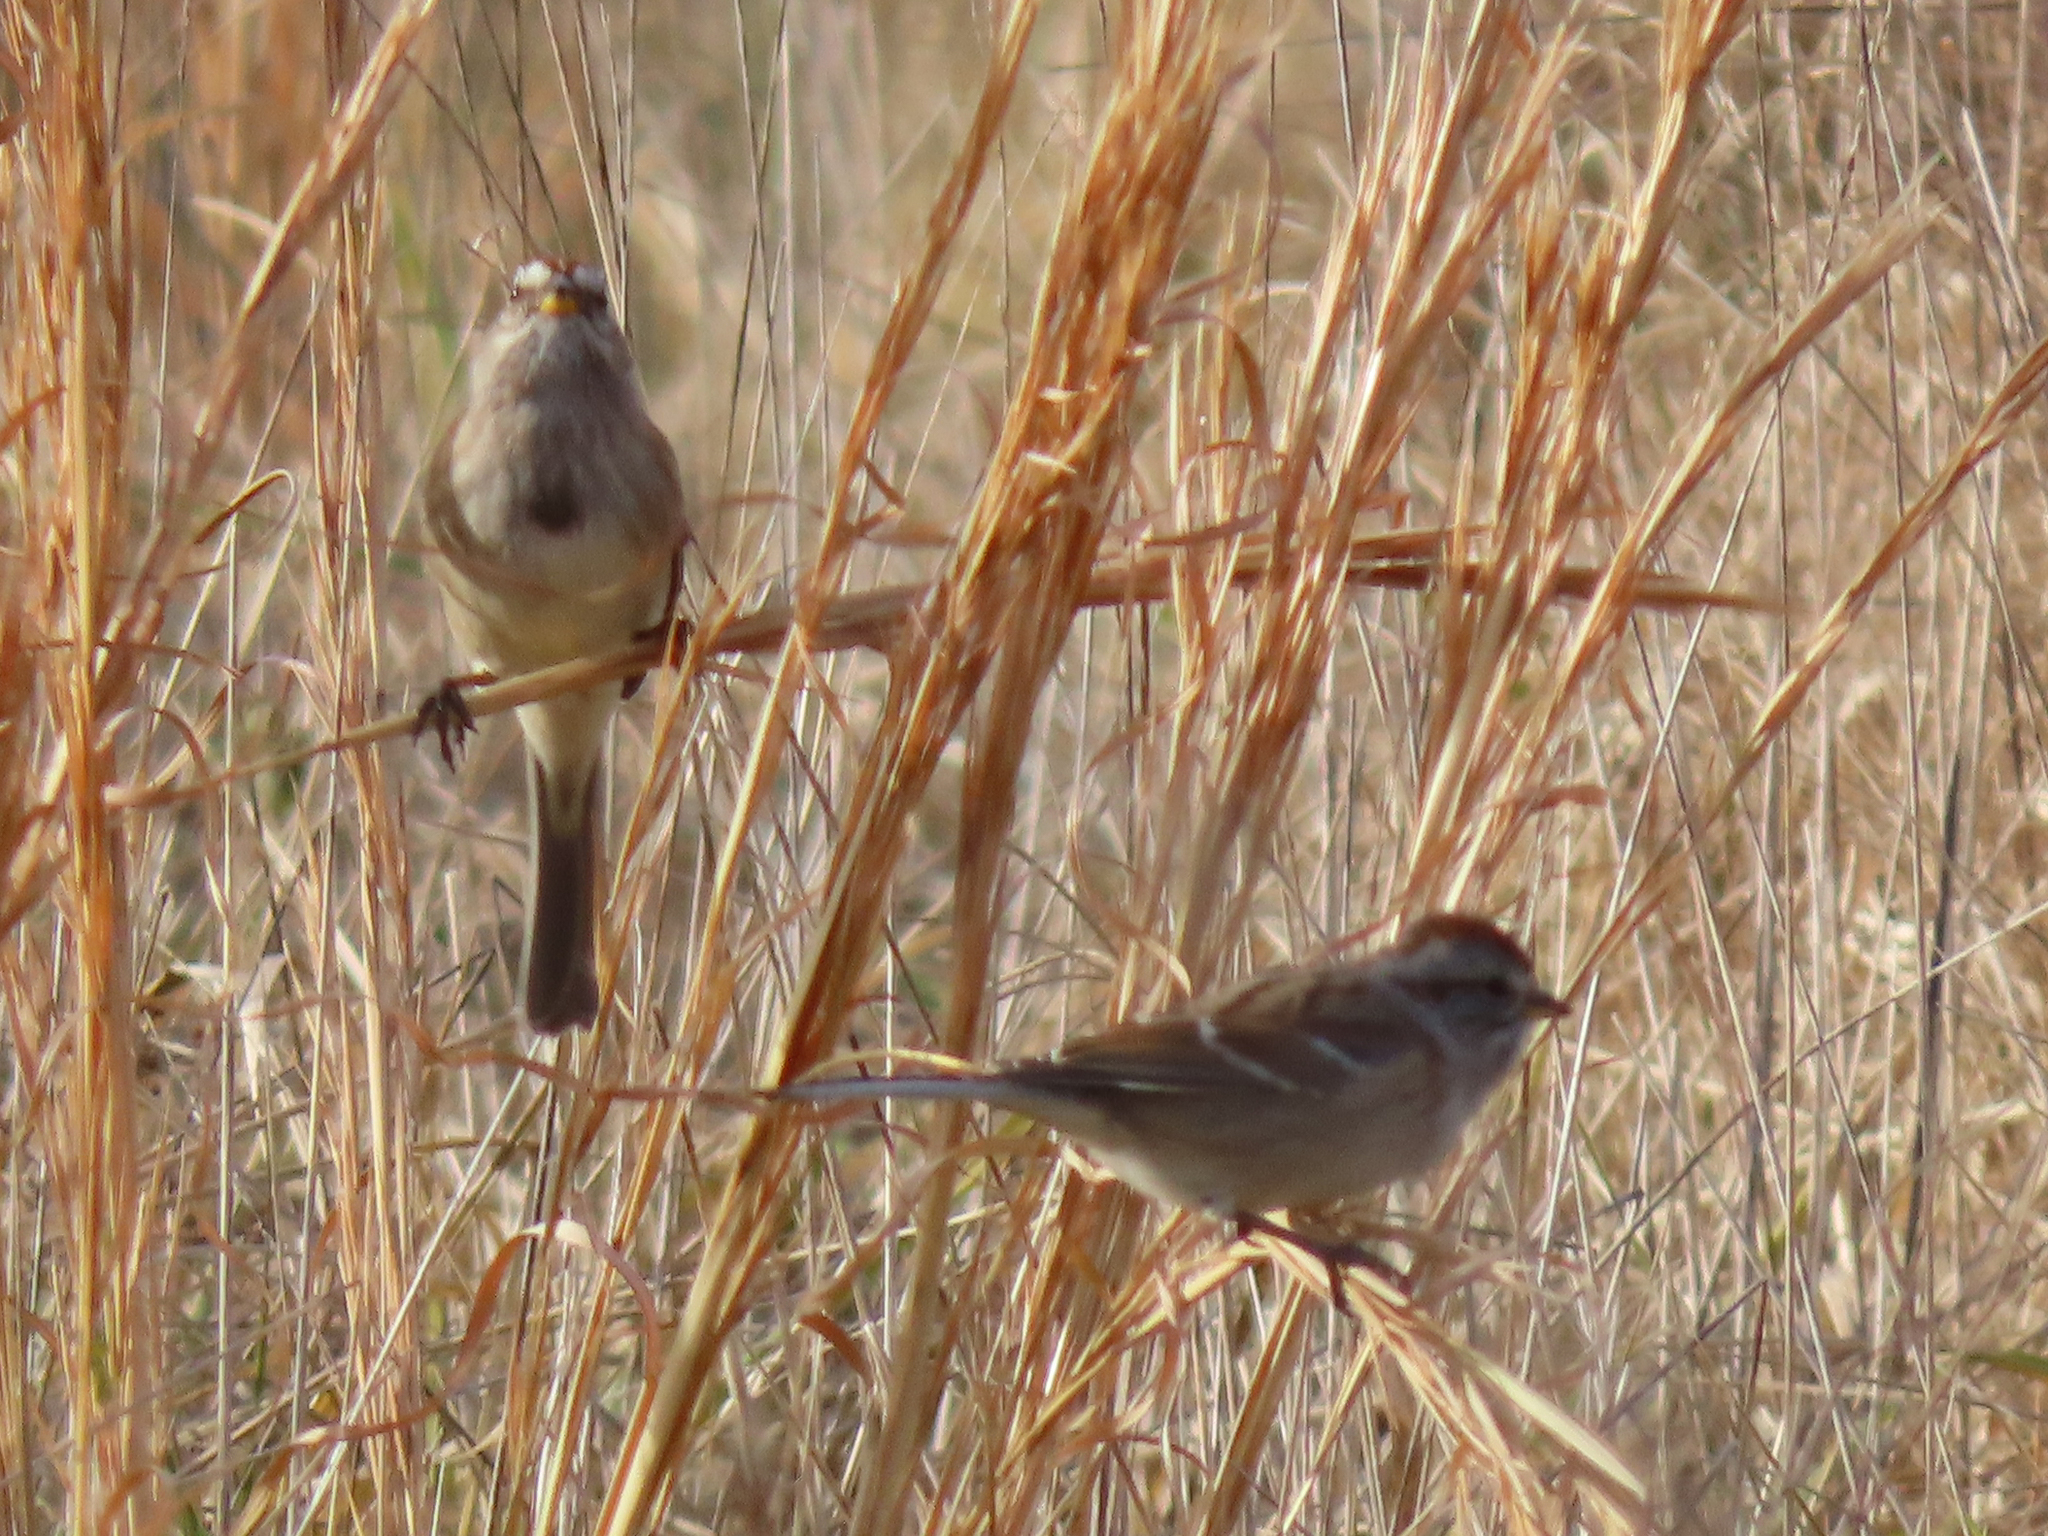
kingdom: Animalia
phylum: Chordata
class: Aves
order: Passeriformes
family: Passerellidae
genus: Spizelloides
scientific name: Spizelloides arborea
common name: American tree sparrow
